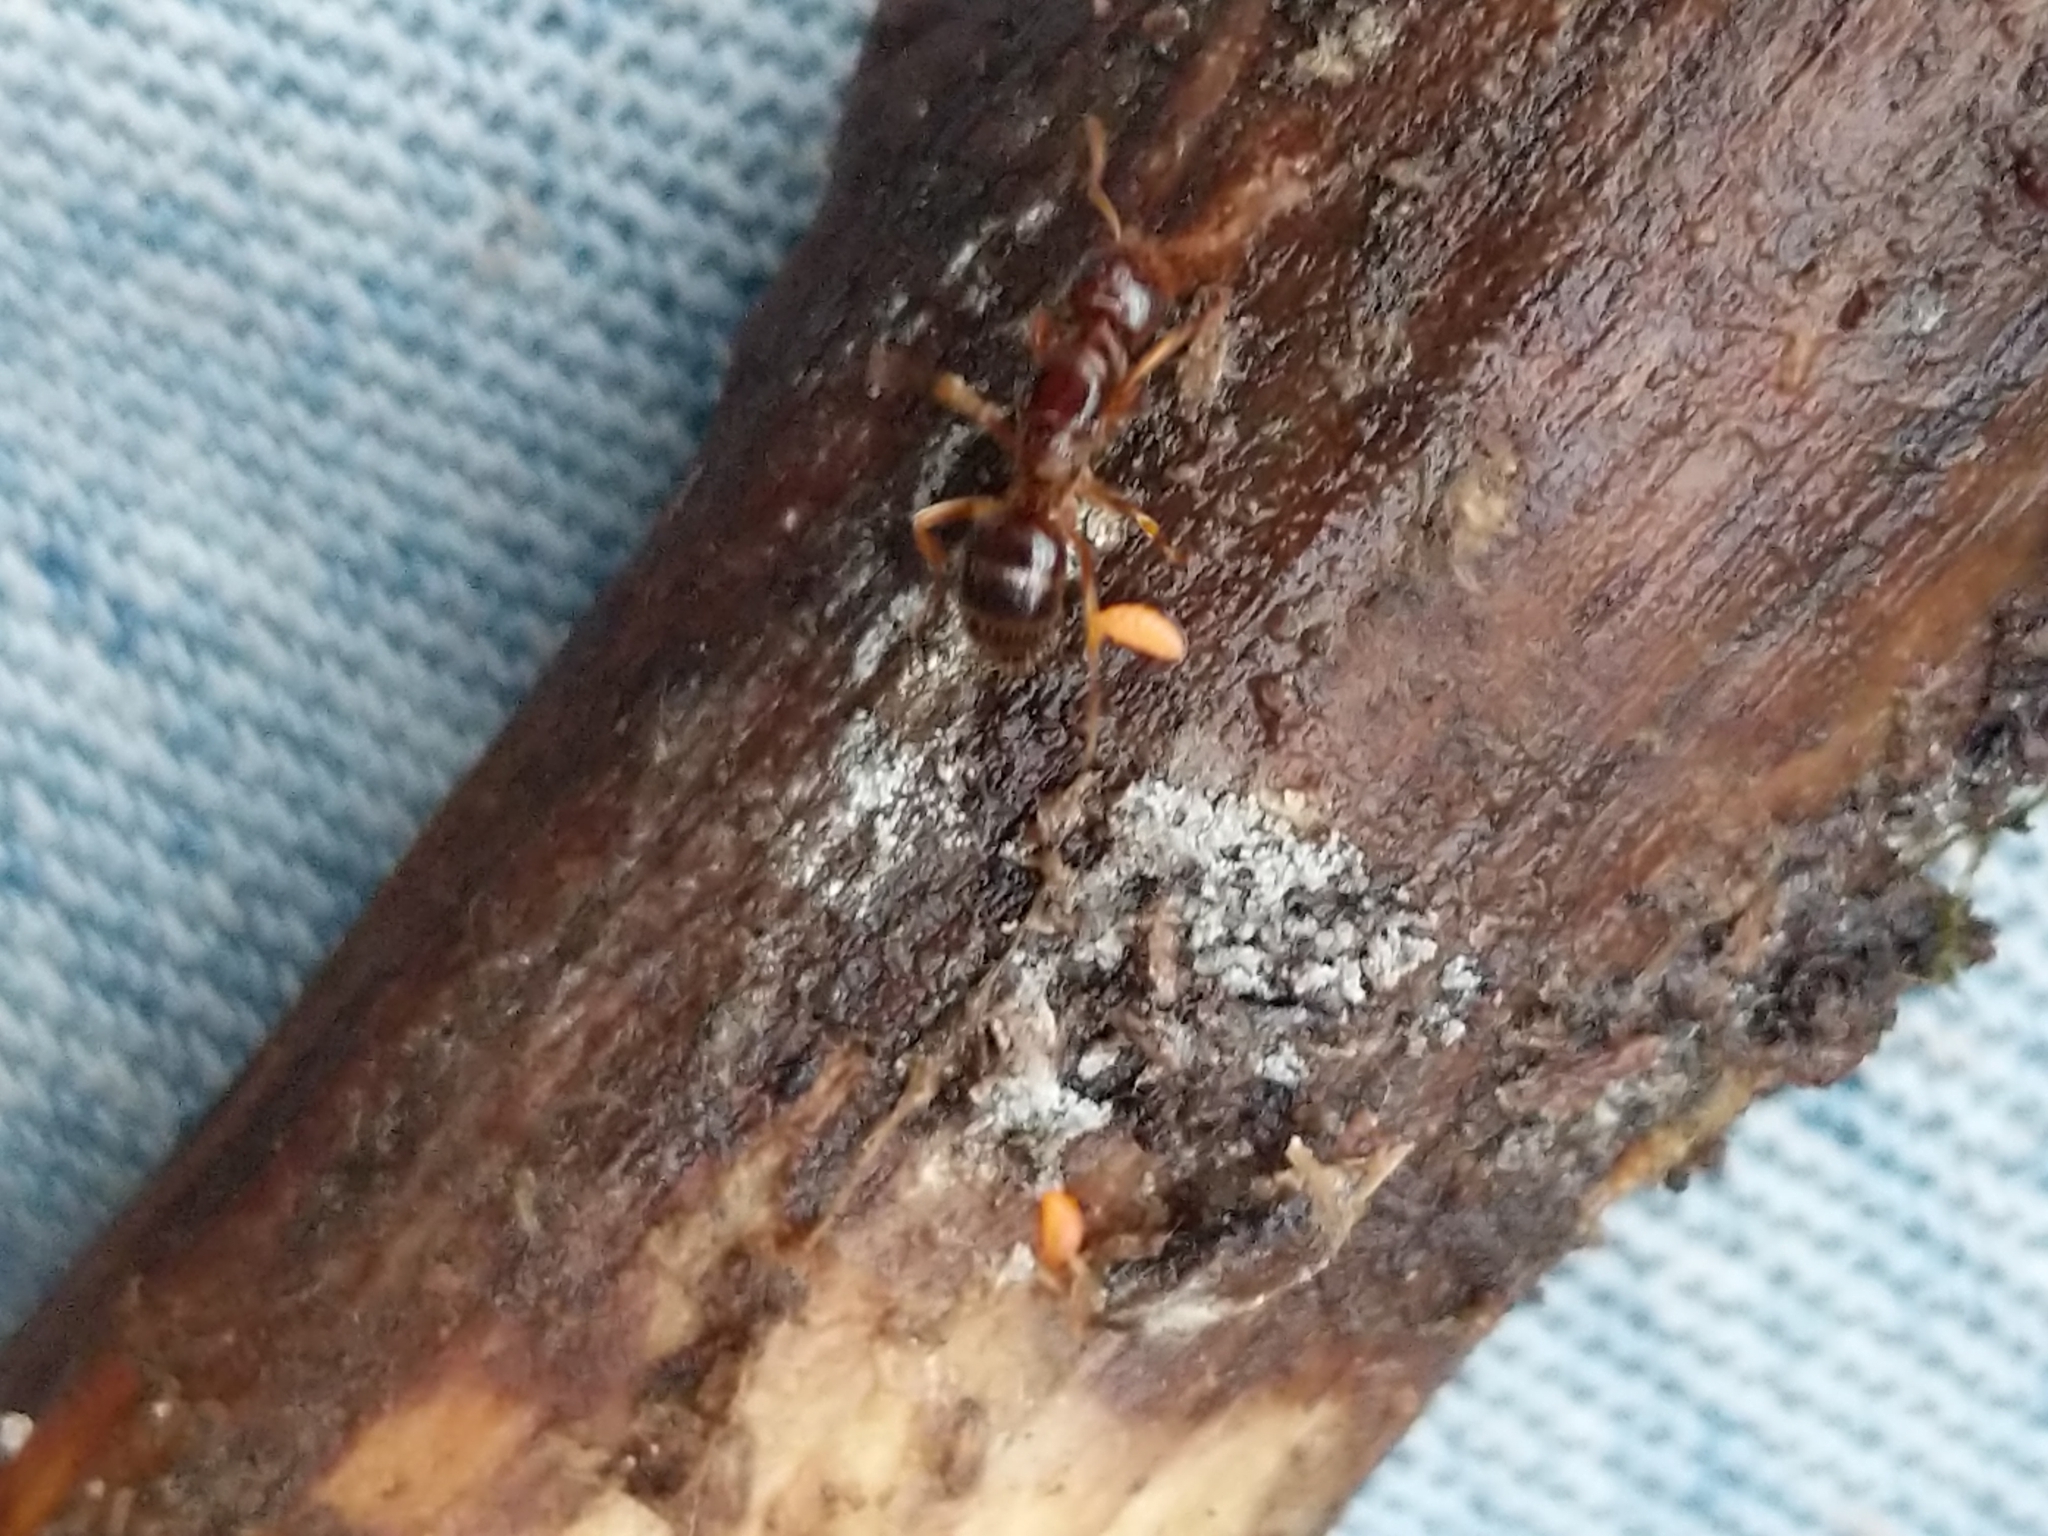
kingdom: Animalia
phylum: Arthropoda
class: Insecta
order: Hymenoptera
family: Formicidae
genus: Lasius
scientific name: Lasius claviger
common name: Common citronella ant
